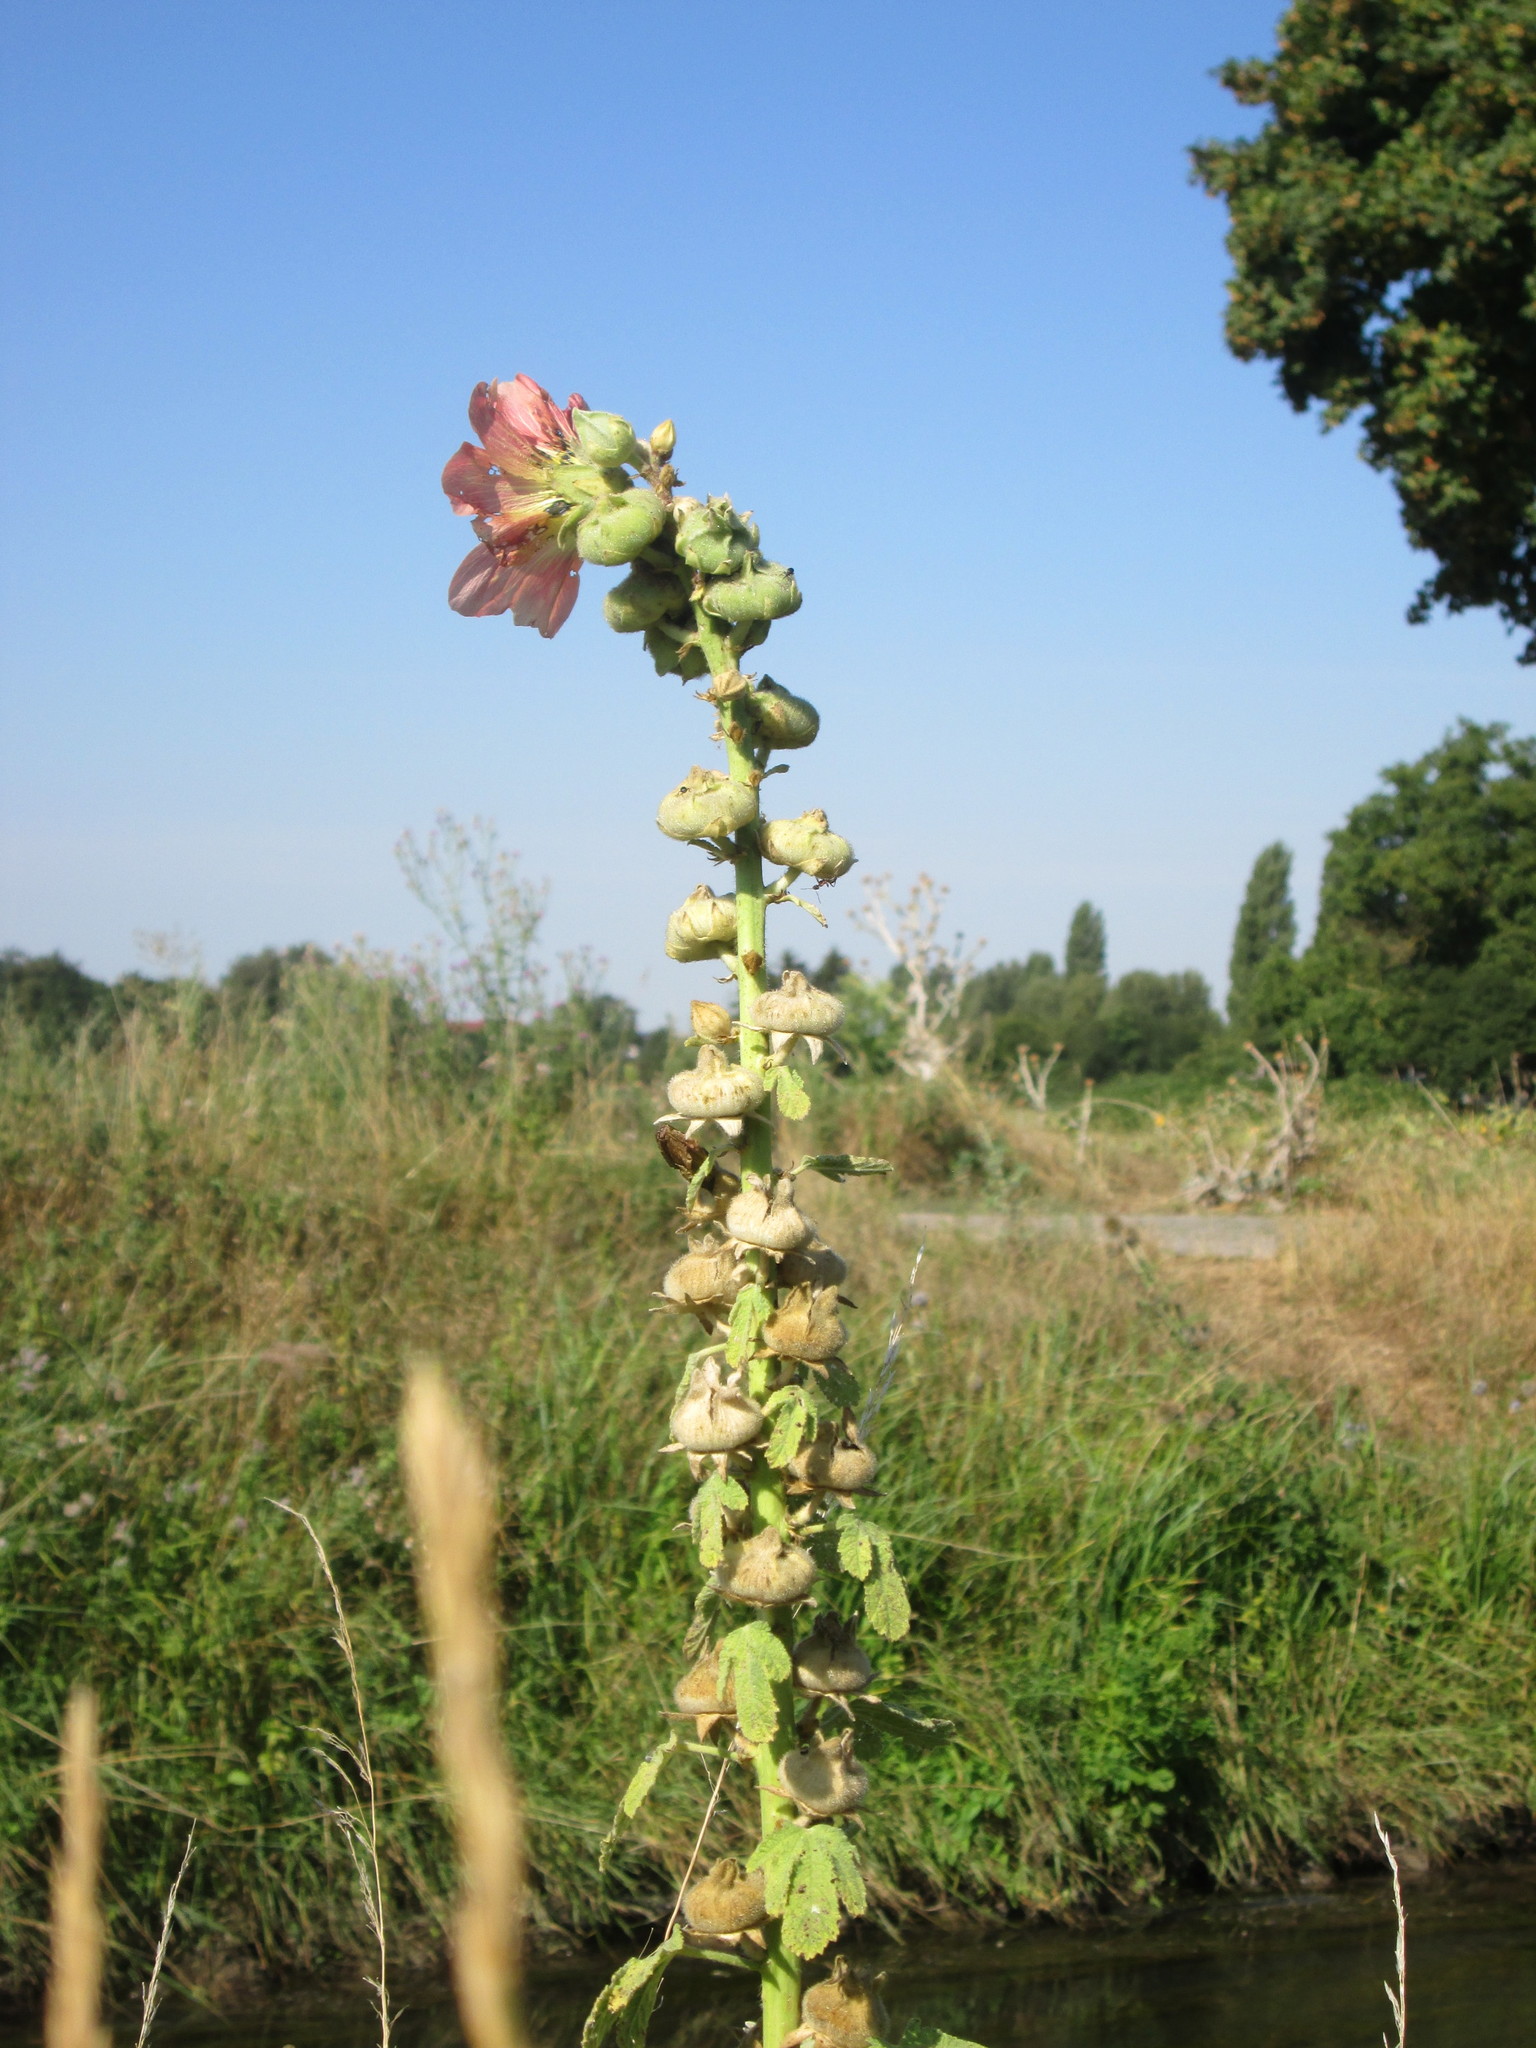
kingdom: Plantae
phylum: Tracheophyta
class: Magnoliopsida
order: Malvales
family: Malvaceae
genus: Alcea
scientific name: Alcea rosea
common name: Hollyhock
